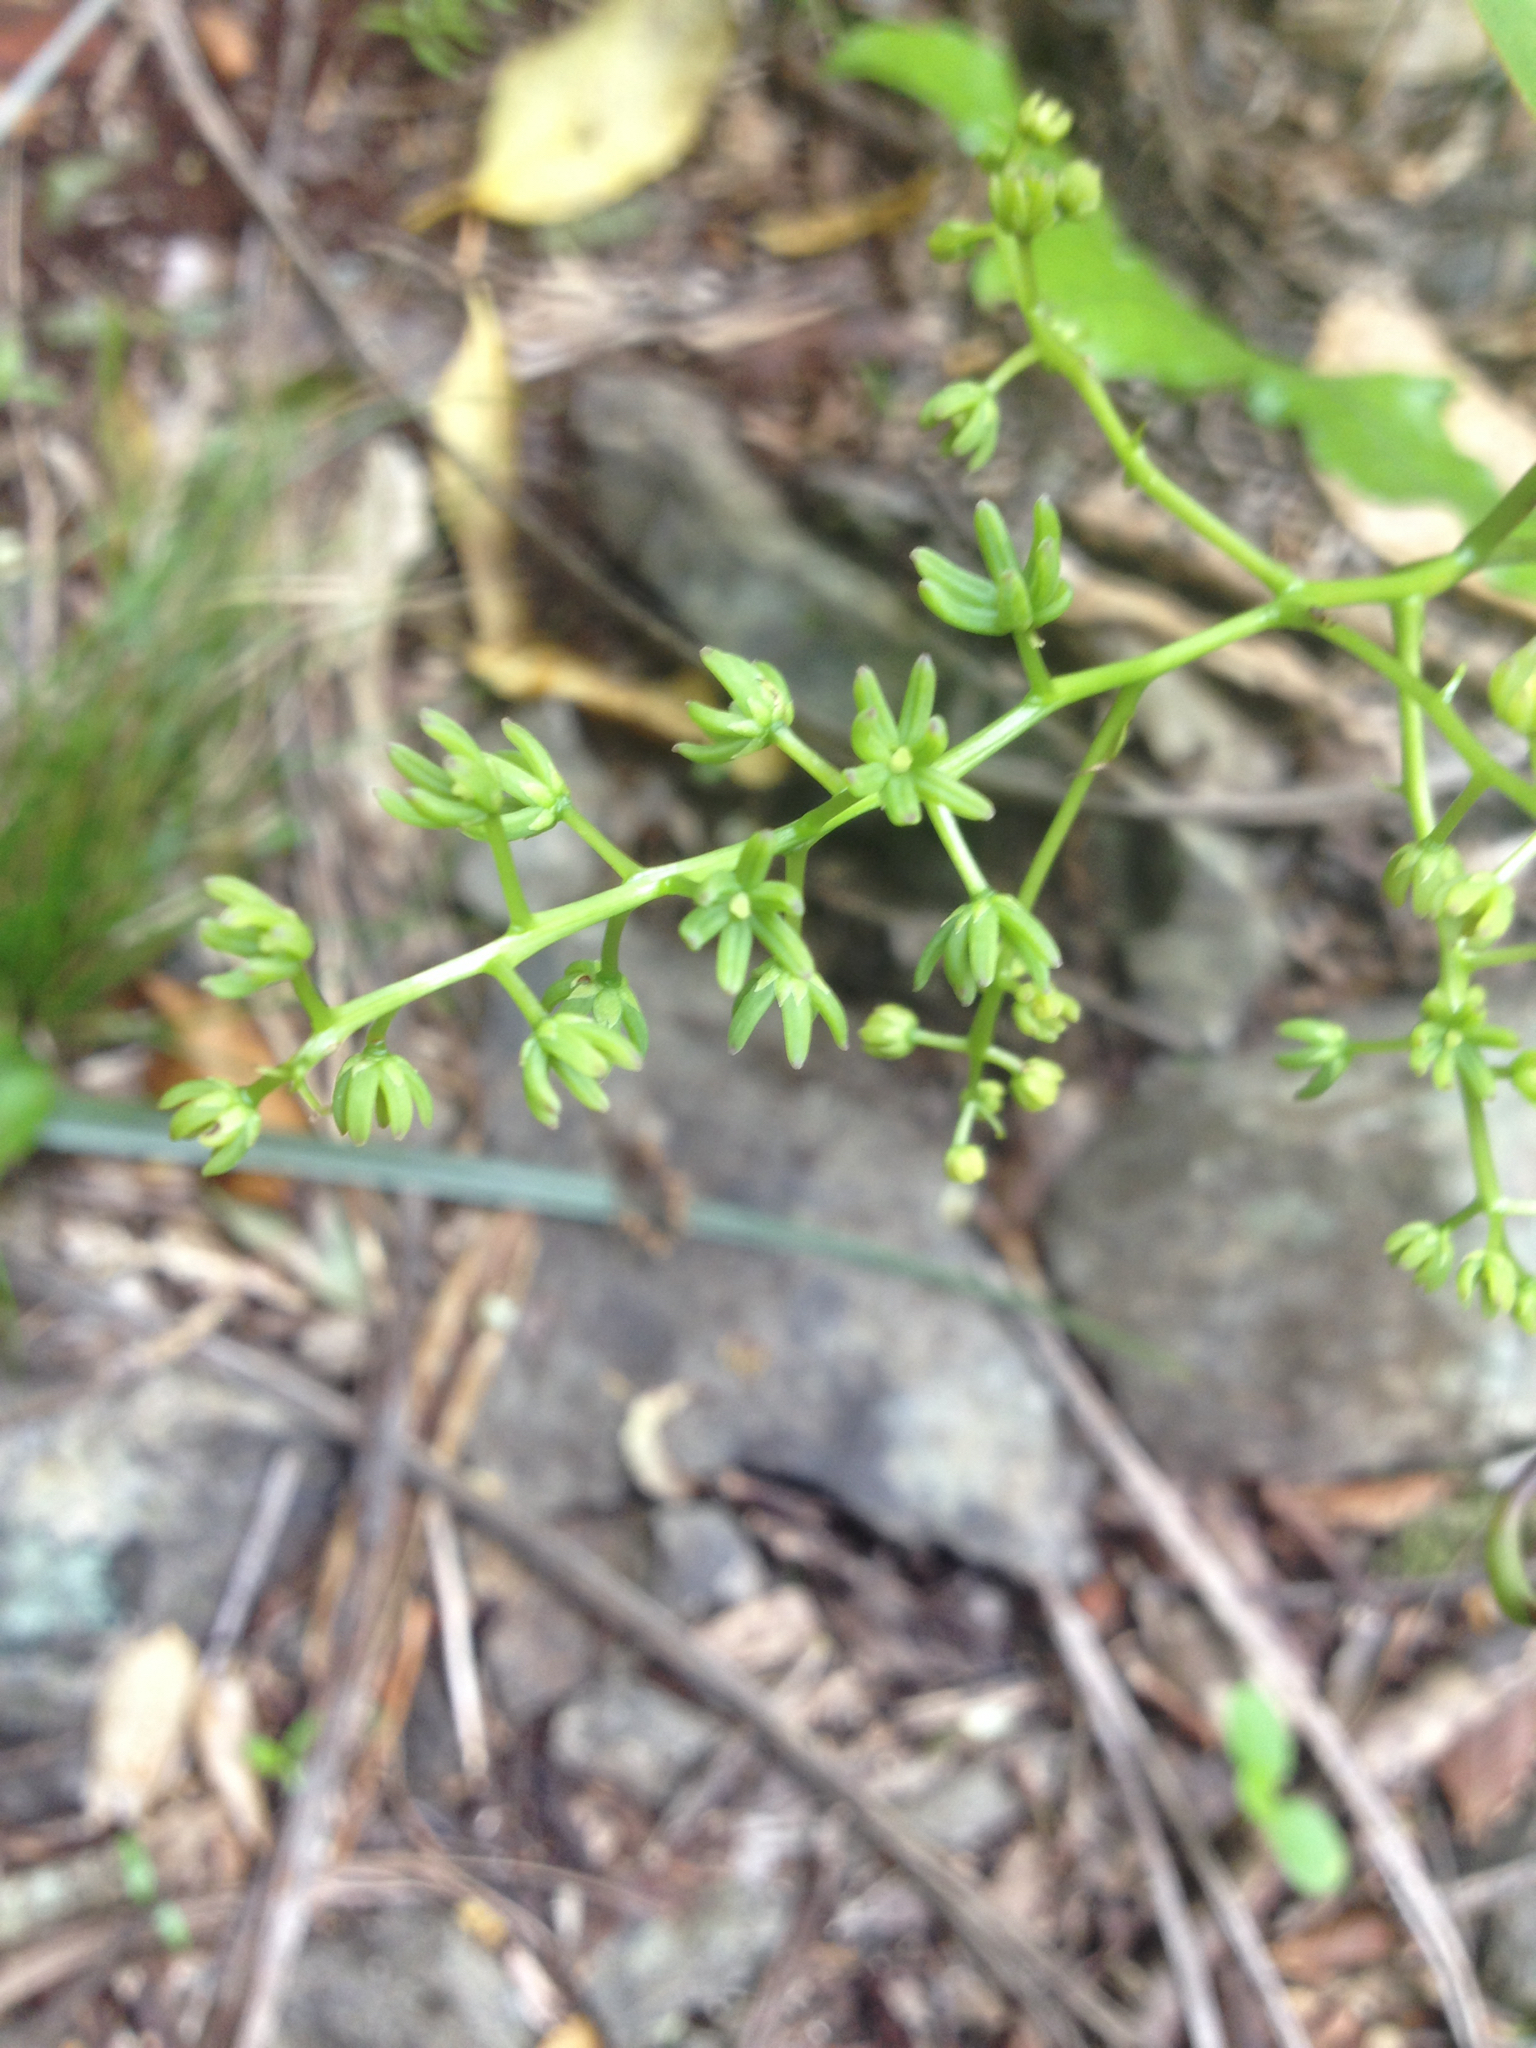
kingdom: Plantae
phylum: Tracheophyta
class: Liliopsida
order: Liliales
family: Ripogonaceae
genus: Ripogonum
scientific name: Ripogonum scandens
